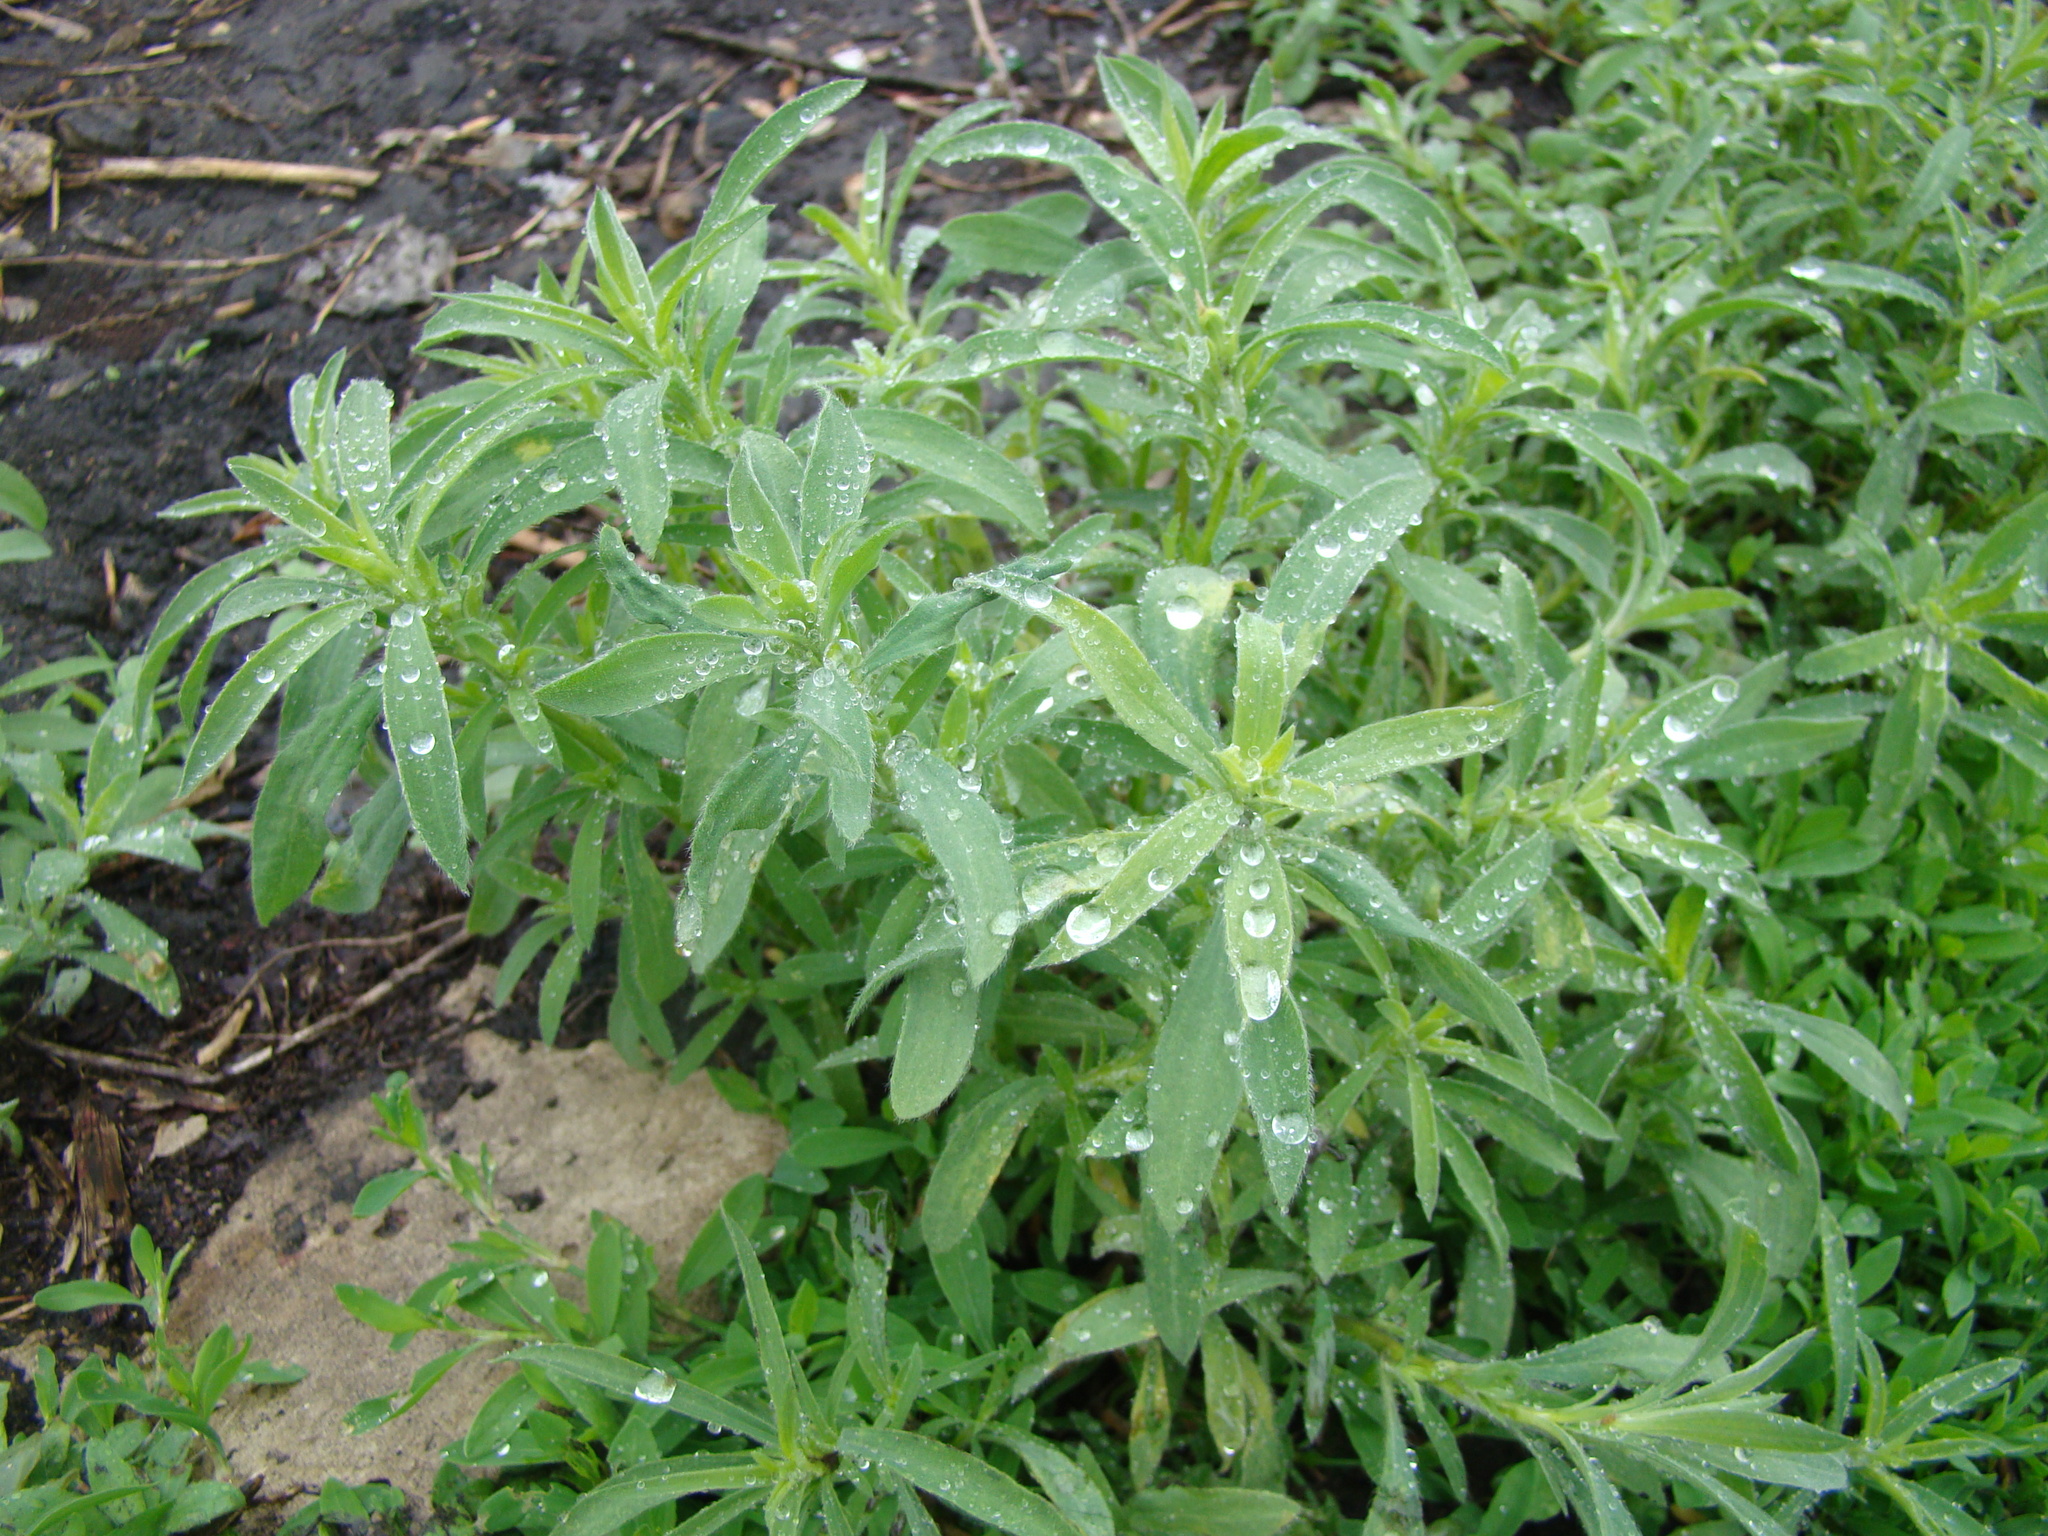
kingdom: Plantae
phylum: Tracheophyta
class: Magnoliopsida
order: Caryophyllales
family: Amaranthaceae
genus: Bassia
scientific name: Bassia scoparia
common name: Belvedere
